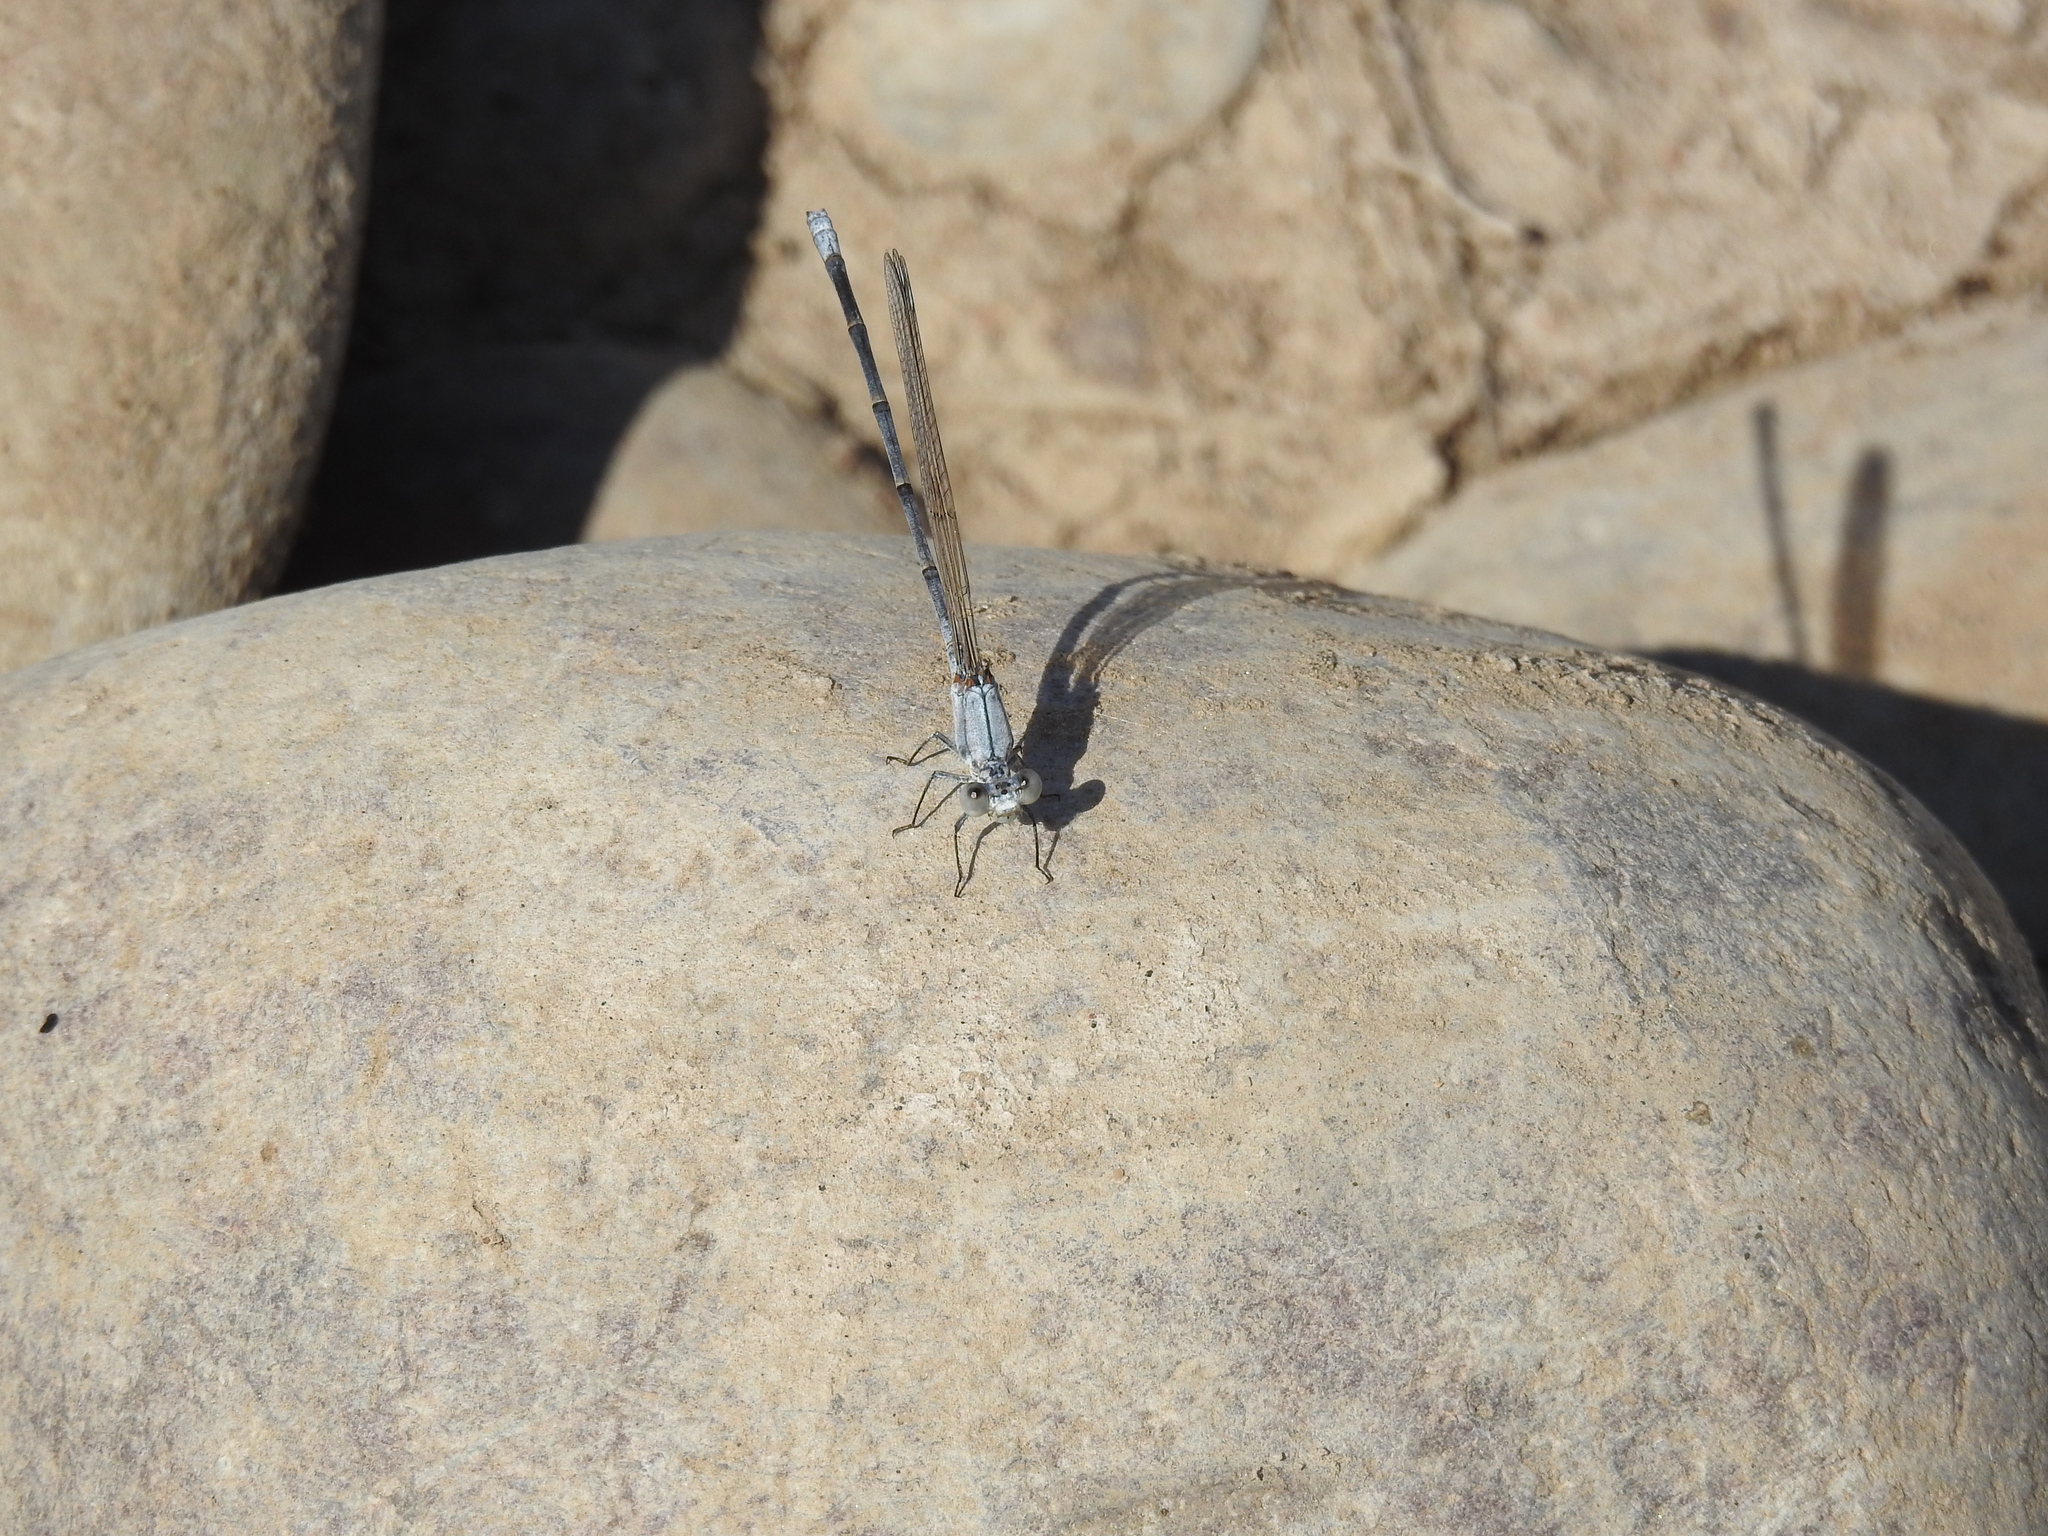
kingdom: Animalia
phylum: Arthropoda
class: Insecta
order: Odonata
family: Coenagrionidae
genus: Argia
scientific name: Argia moesta
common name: Powdered dancer
